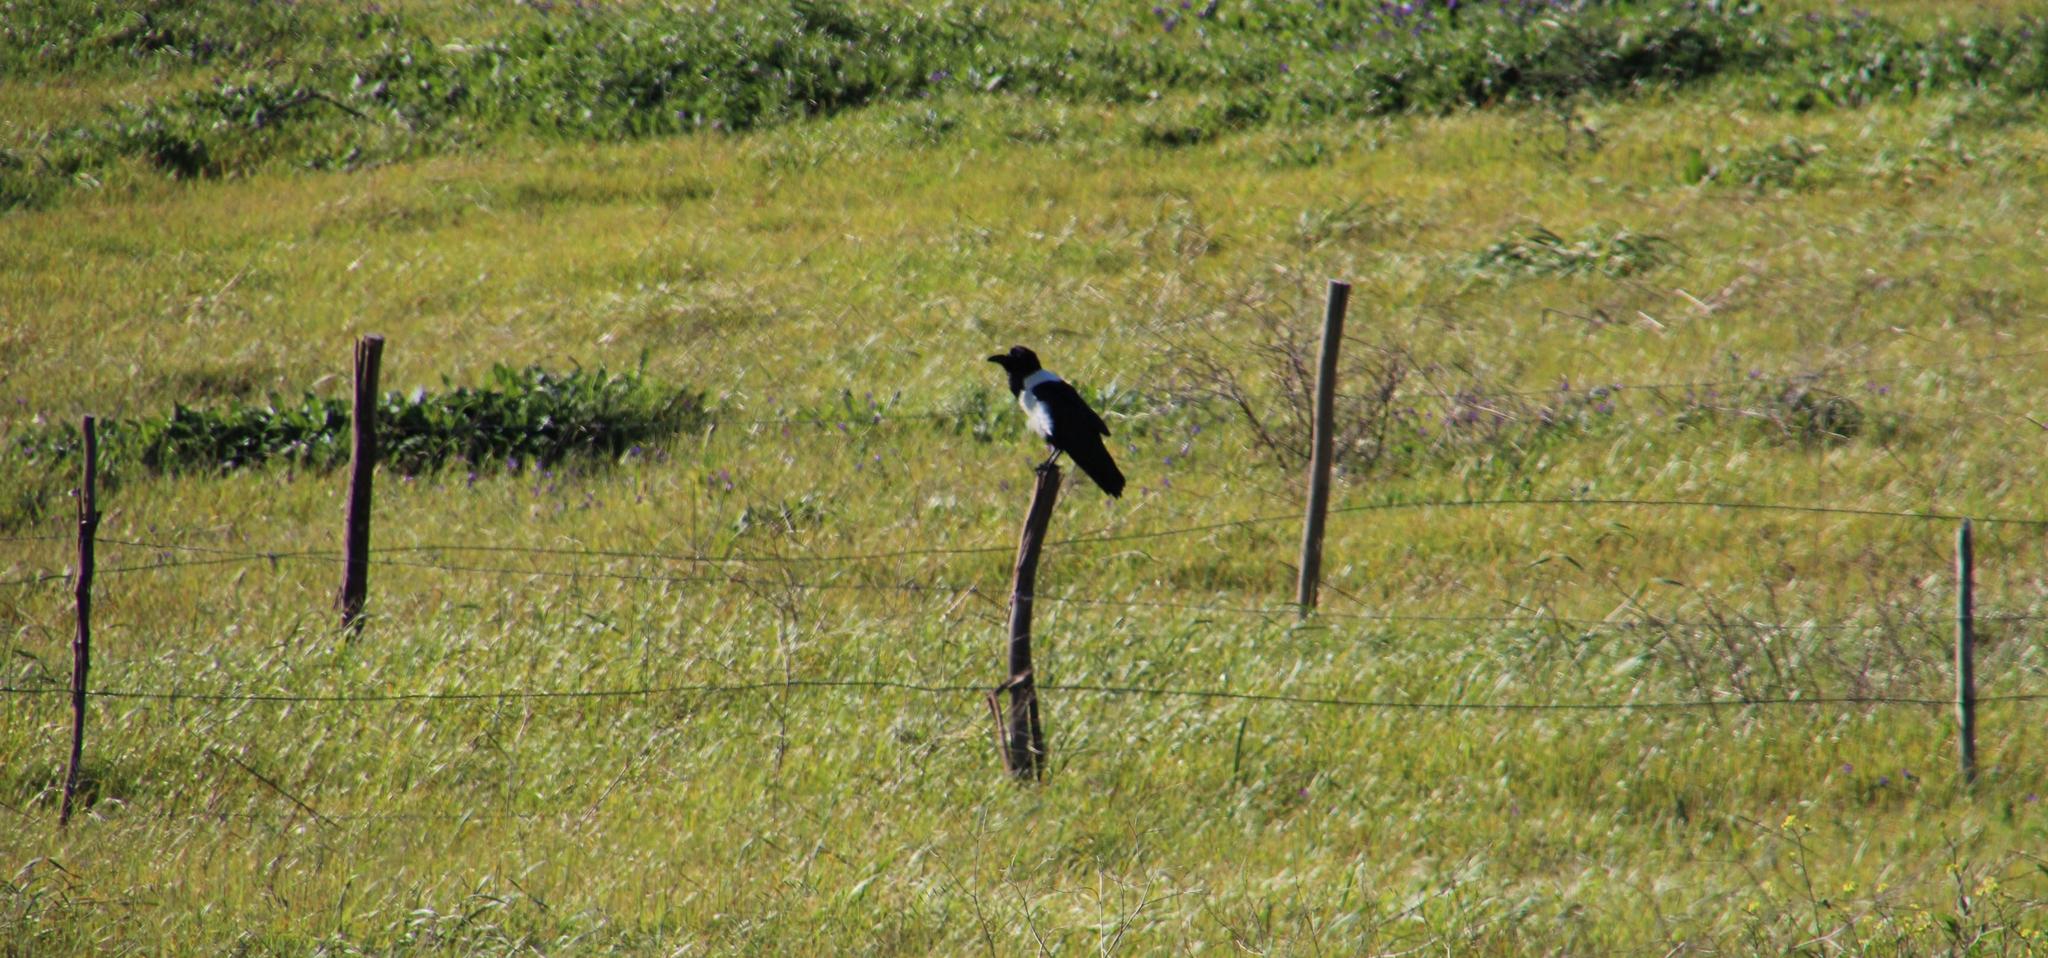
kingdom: Animalia
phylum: Chordata
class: Aves
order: Passeriformes
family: Corvidae
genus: Corvus
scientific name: Corvus albus
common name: Pied crow
